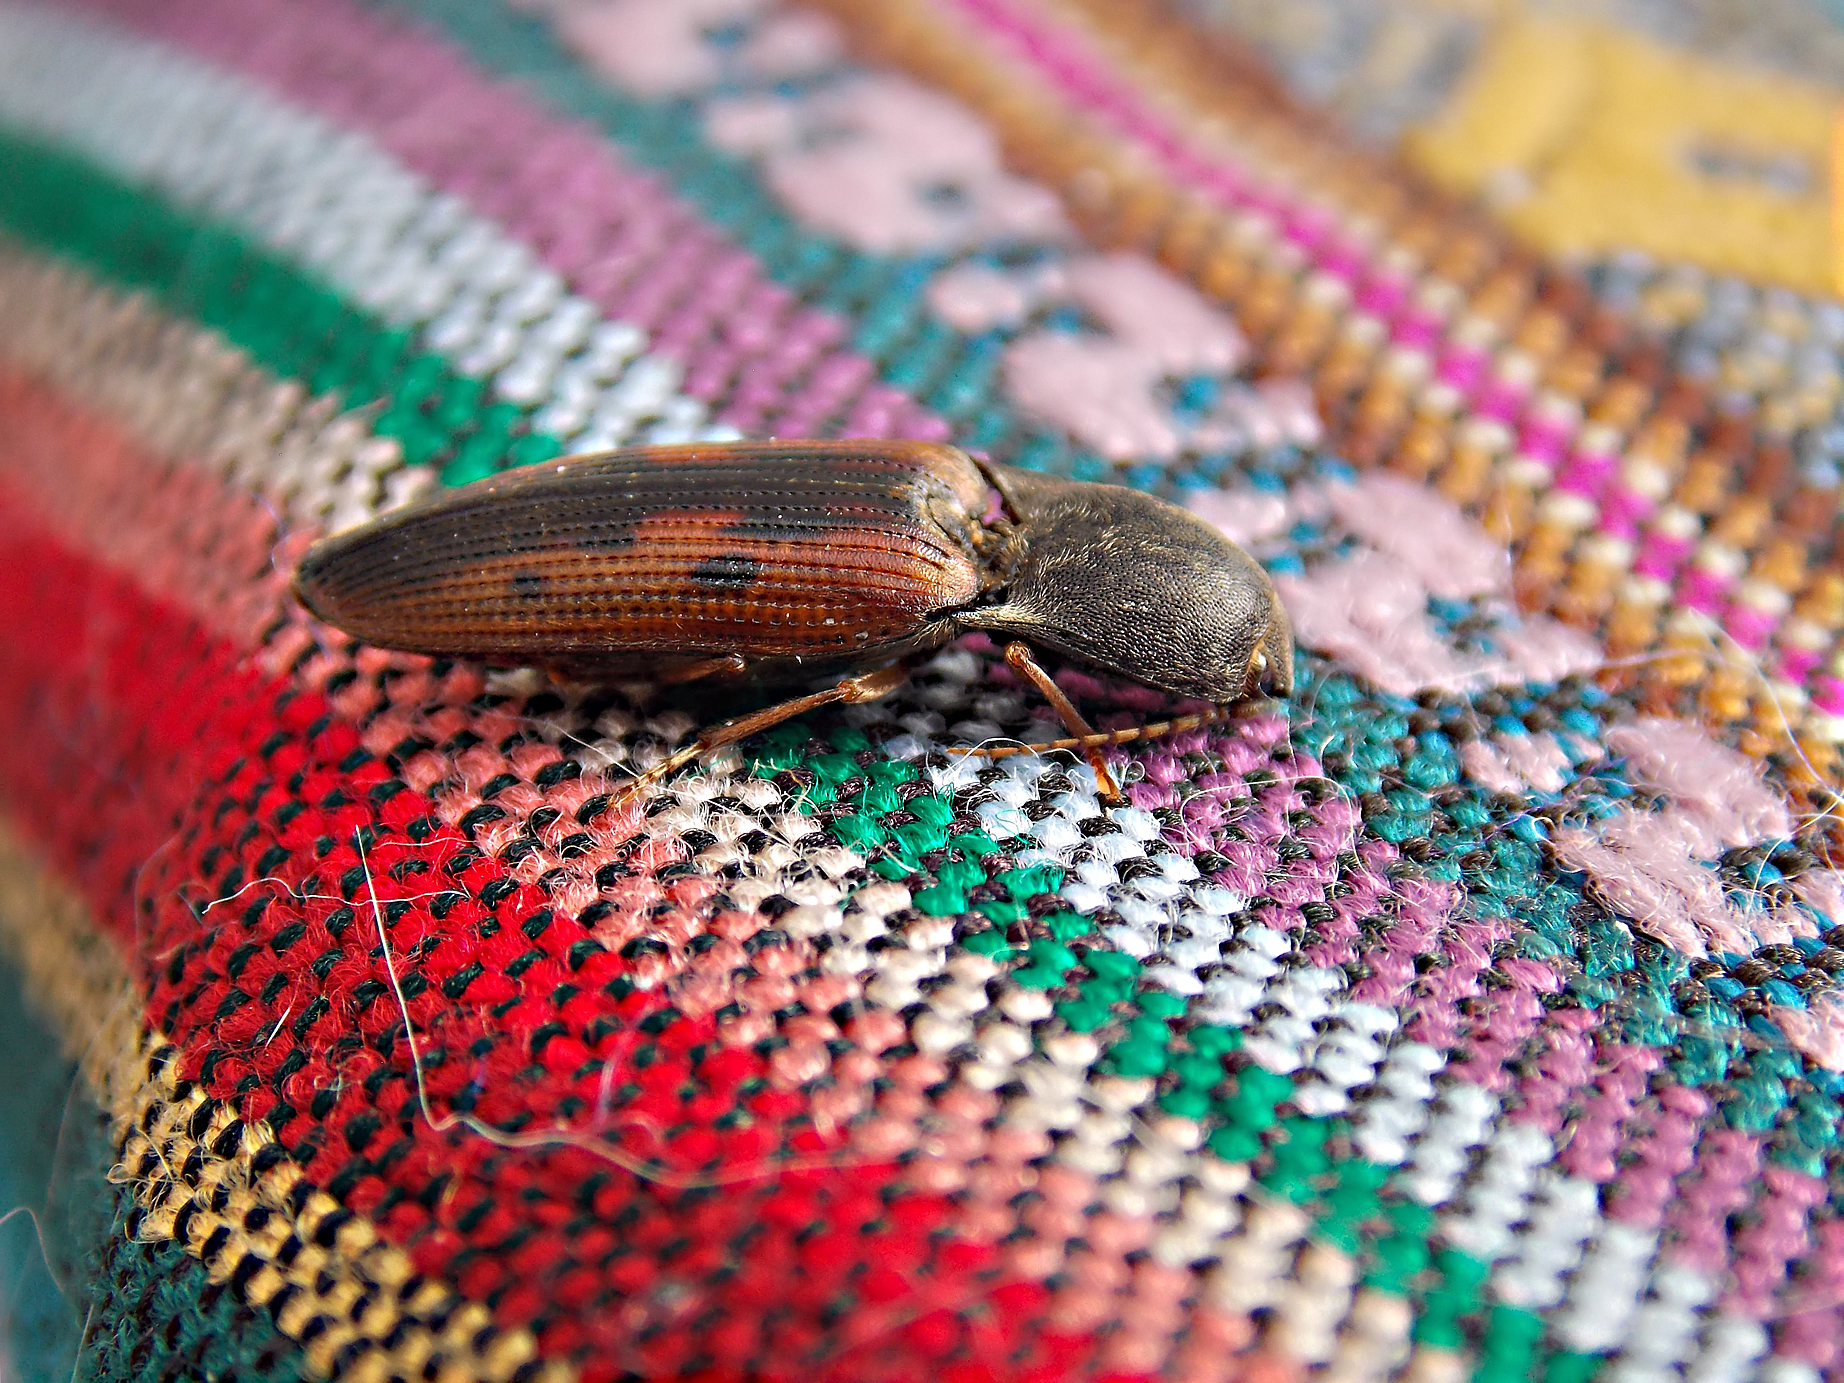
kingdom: Animalia
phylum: Arthropoda
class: Insecta
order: Coleoptera
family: Elateridae
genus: Monocrepidius
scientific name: Monocrepidius
